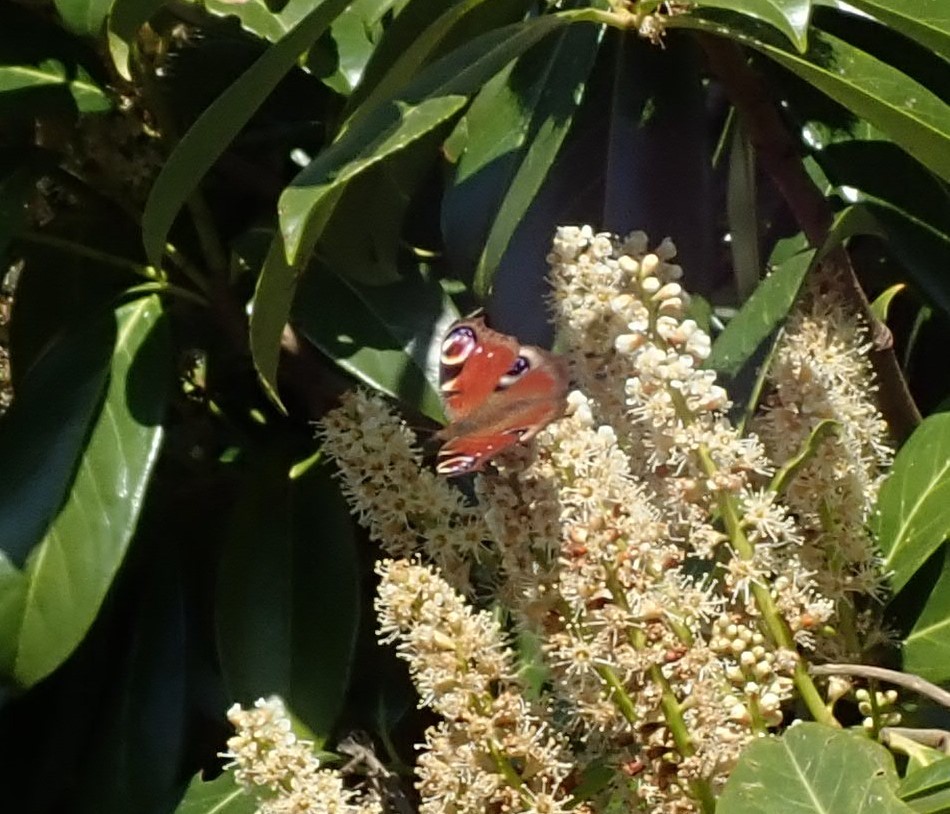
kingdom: Animalia
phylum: Arthropoda
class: Insecta
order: Lepidoptera
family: Nymphalidae
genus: Aglais
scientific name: Aglais io
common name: Peacock
